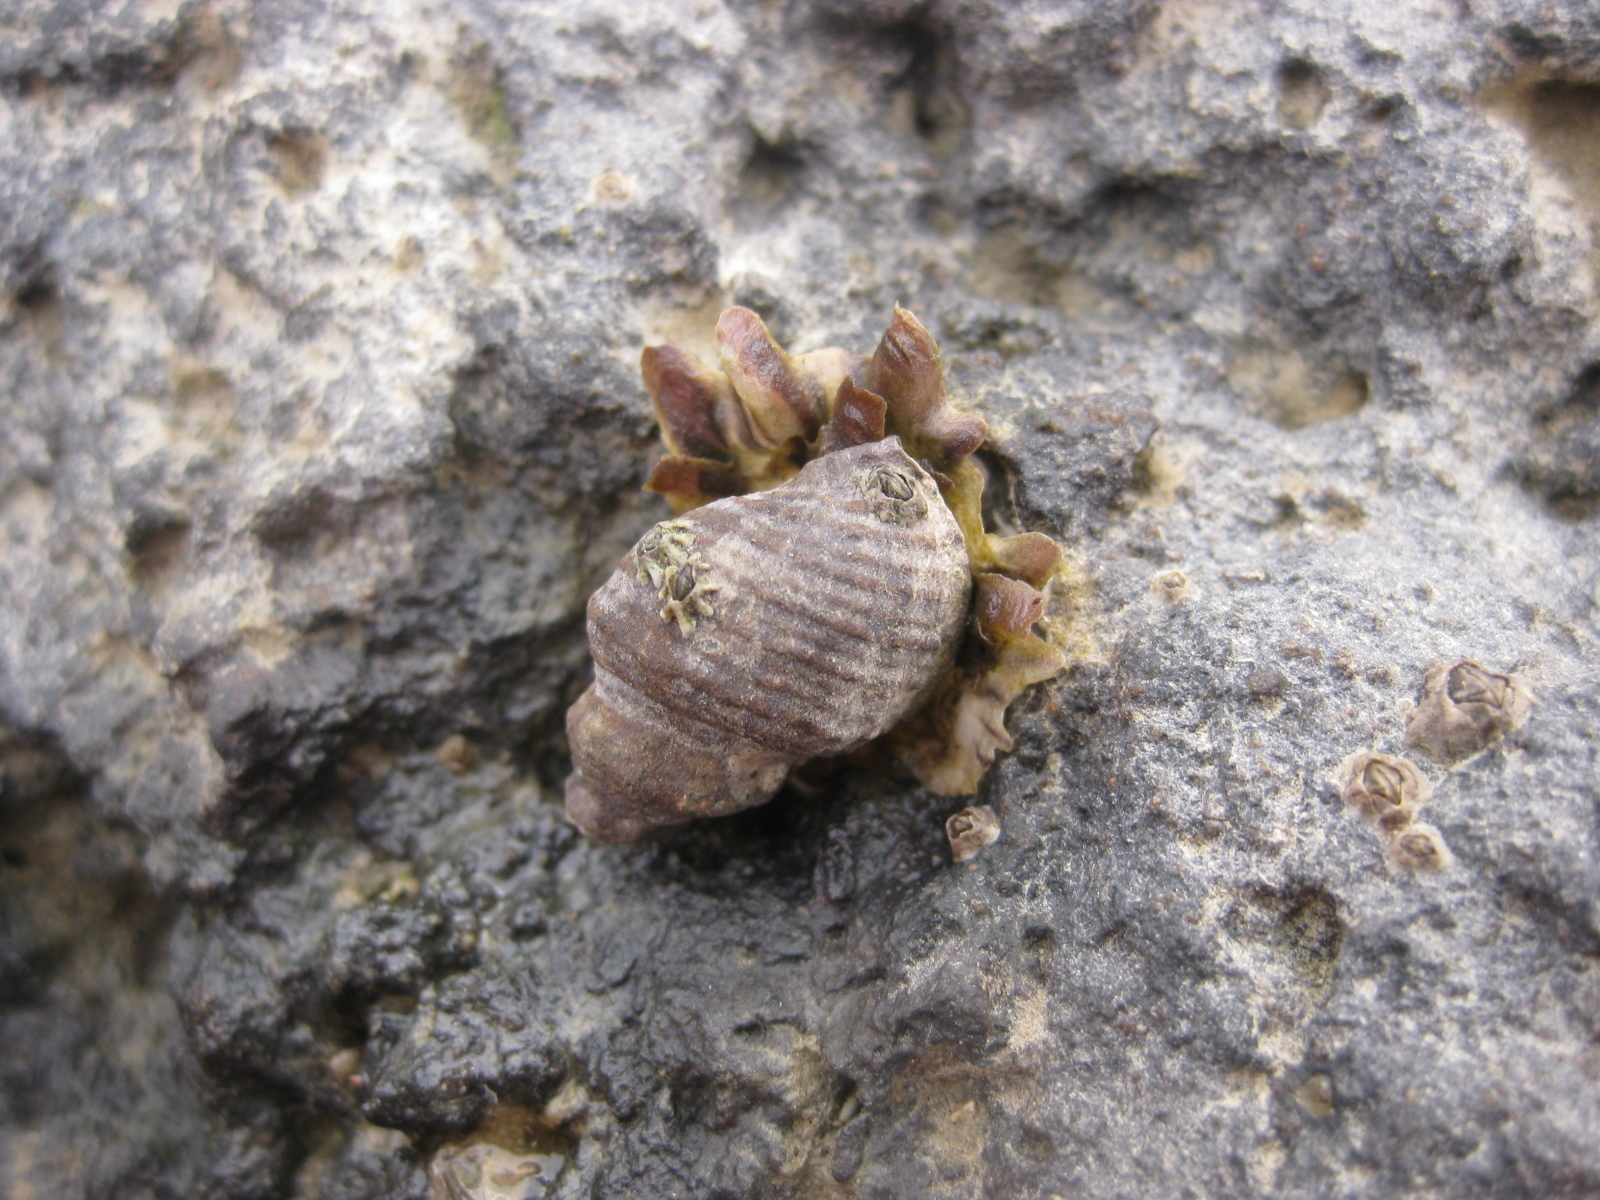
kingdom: Animalia
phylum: Mollusca
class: Gastropoda
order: Neogastropoda
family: Muricidae
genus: Haustrum
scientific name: Haustrum albomarginatum
